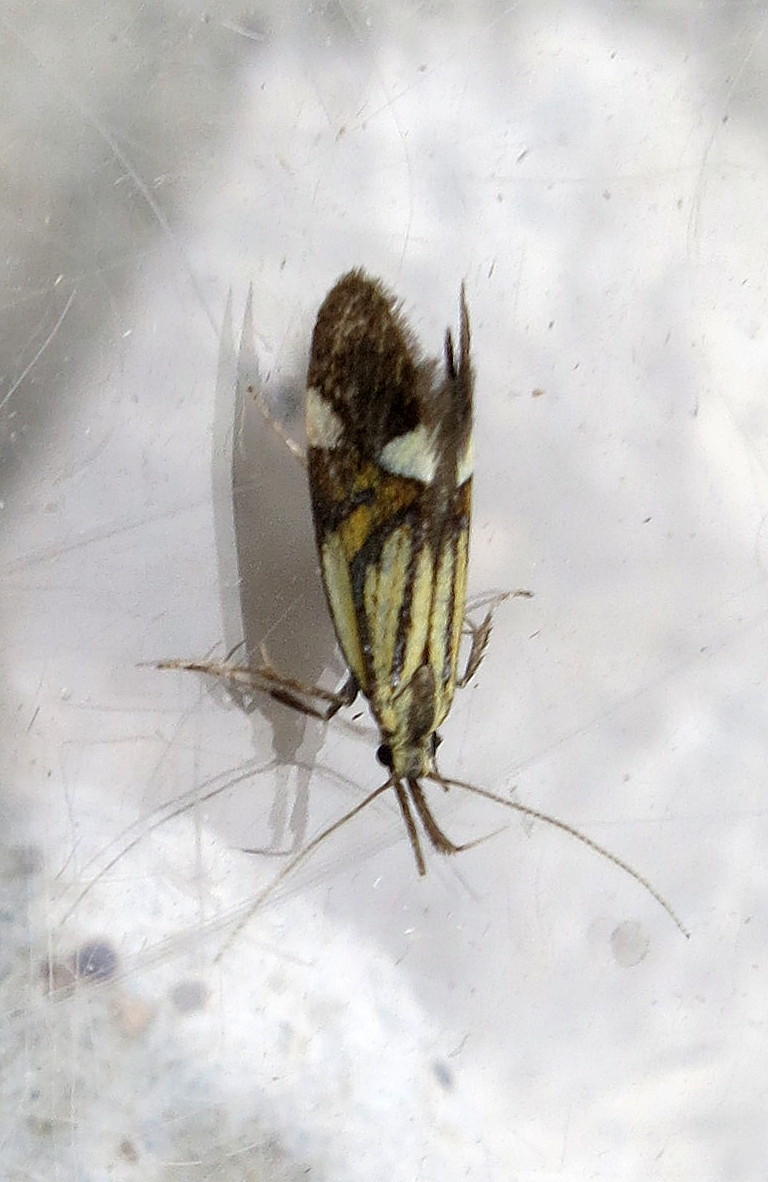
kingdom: Animalia
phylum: Arthropoda
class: Insecta
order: Lepidoptera
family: Oecophoridae
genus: Oecophora
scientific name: Oecophora Alabonia geoffrella
